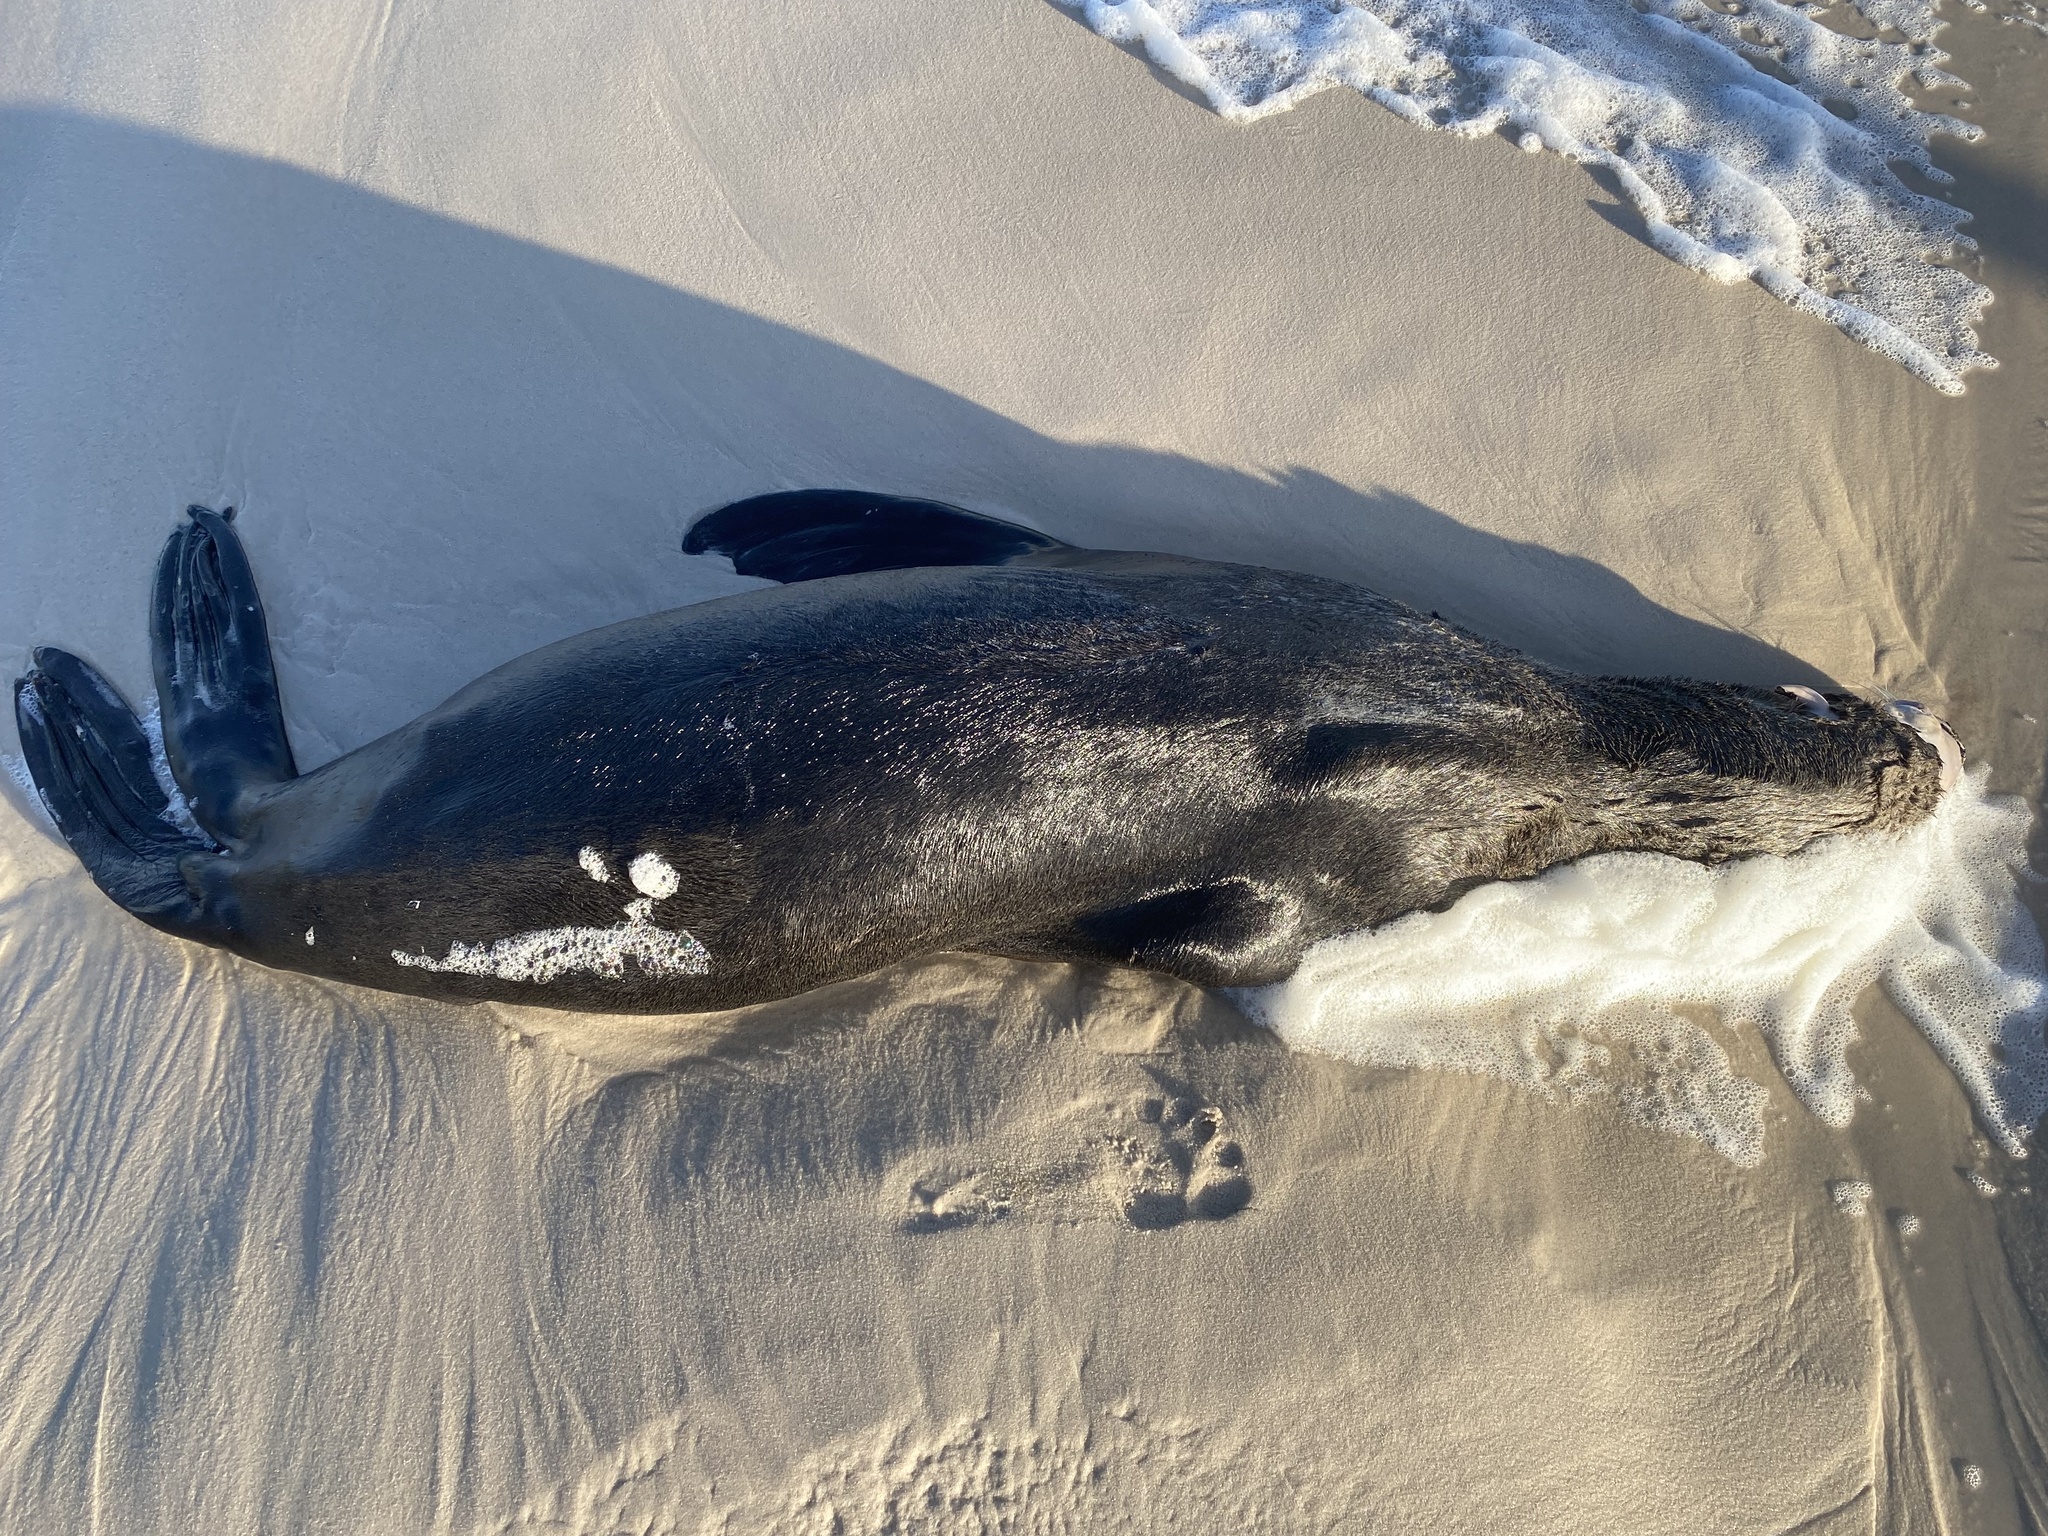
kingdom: Animalia
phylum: Chordata
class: Mammalia
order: Carnivora
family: Otariidae
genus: Arctocephalus
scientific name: Arctocephalus pusillus
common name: Brown fur seal
